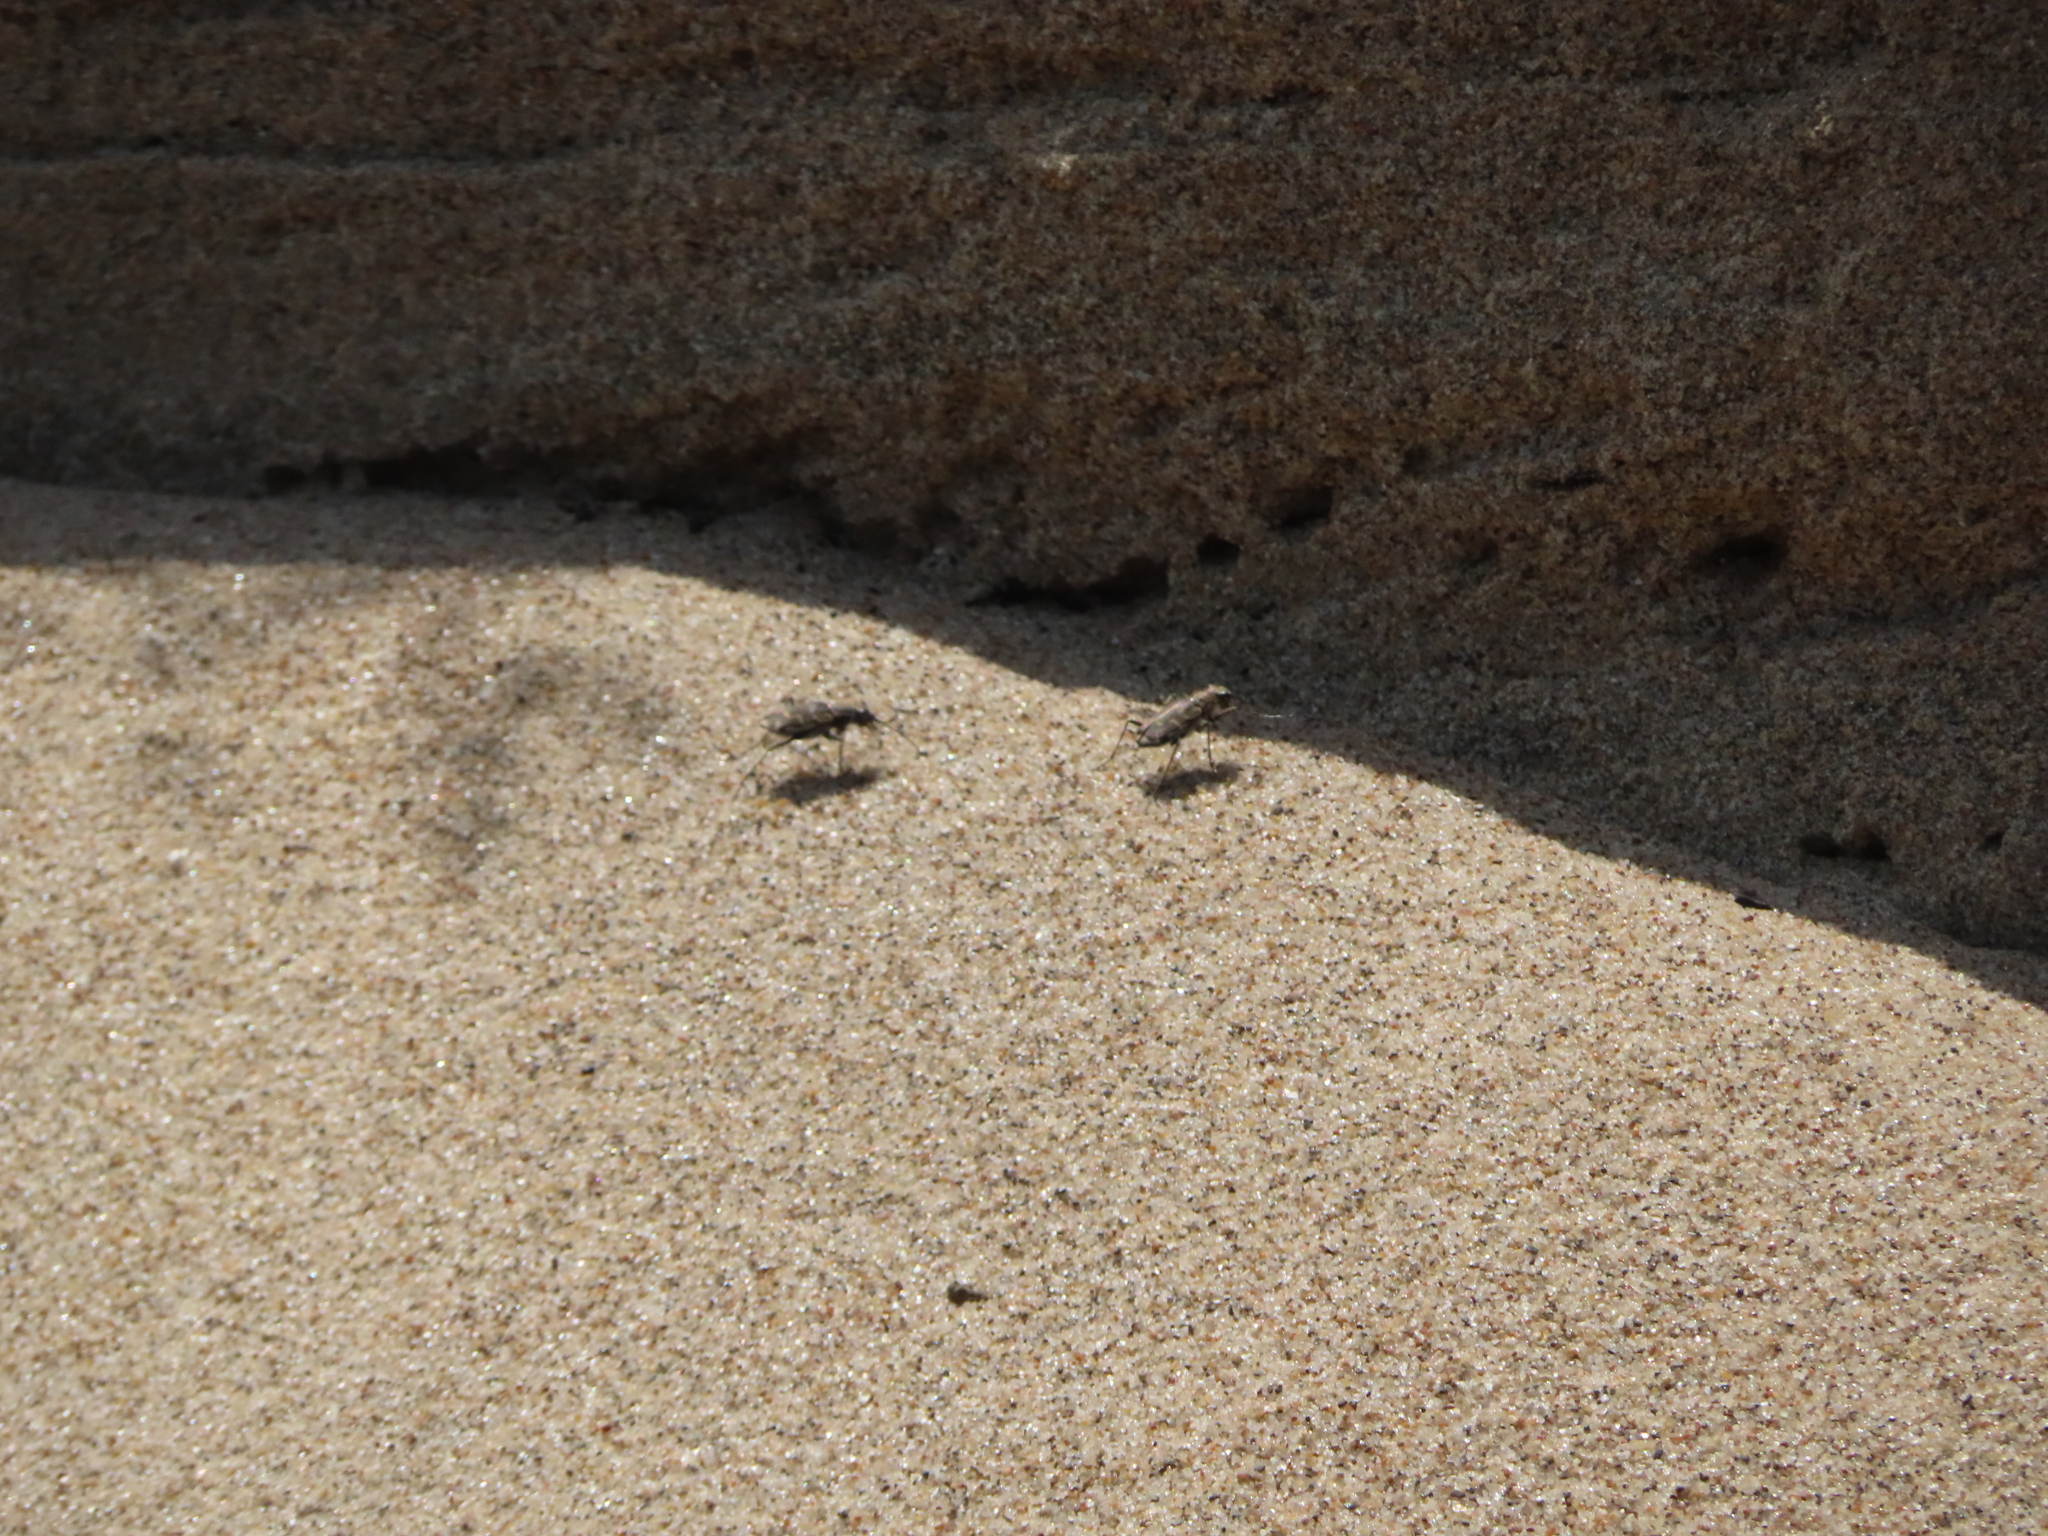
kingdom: Animalia
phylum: Arthropoda
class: Insecta
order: Coleoptera
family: Carabidae
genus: Cicindela
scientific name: Cicindela repanda
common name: Bronzed tiger beetle
